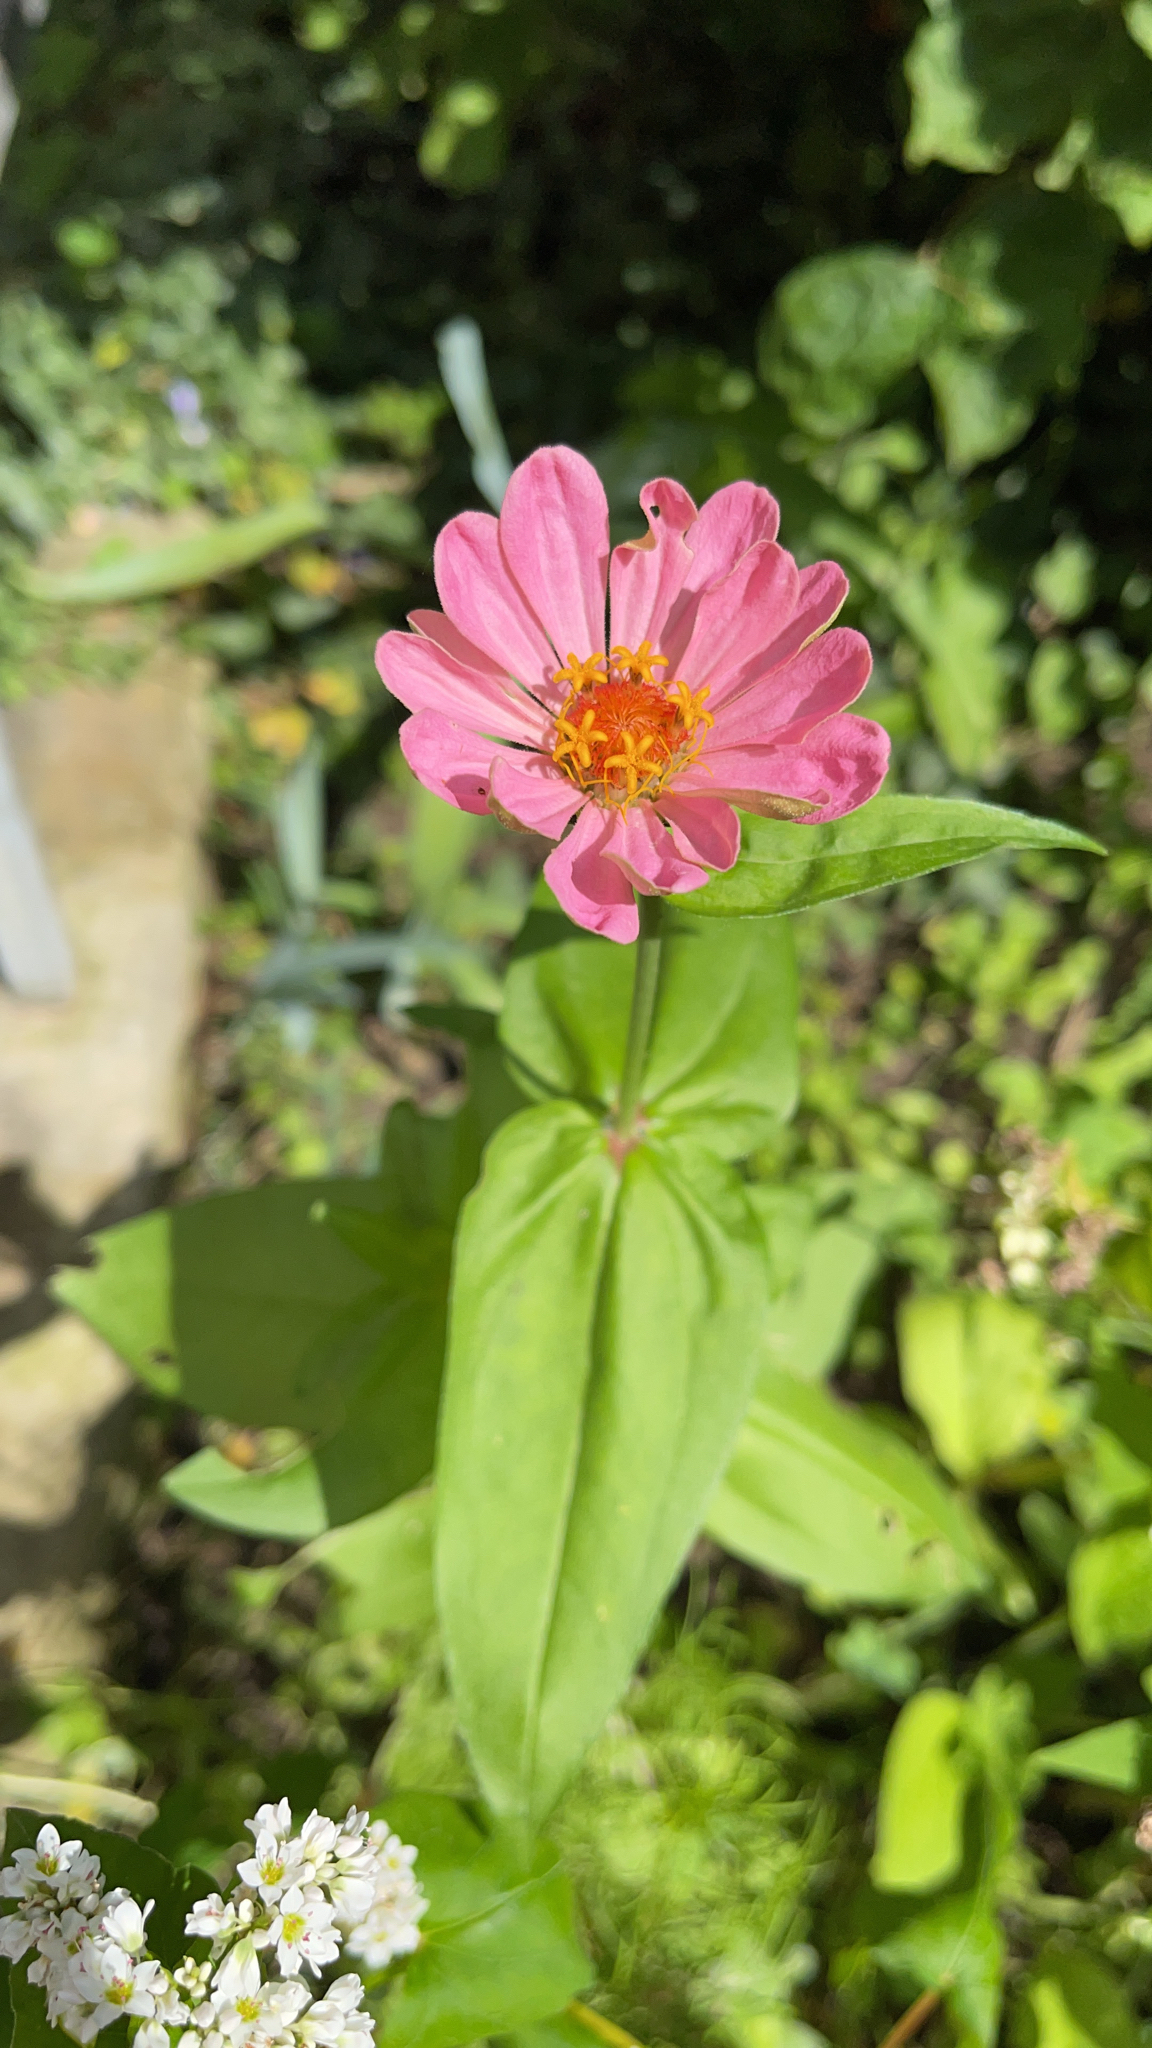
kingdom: Plantae
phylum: Tracheophyta
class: Magnoliopsida
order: Asterales
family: Asteraceae
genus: Zinnia
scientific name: Zinnia elegans
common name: Youth-and-age
